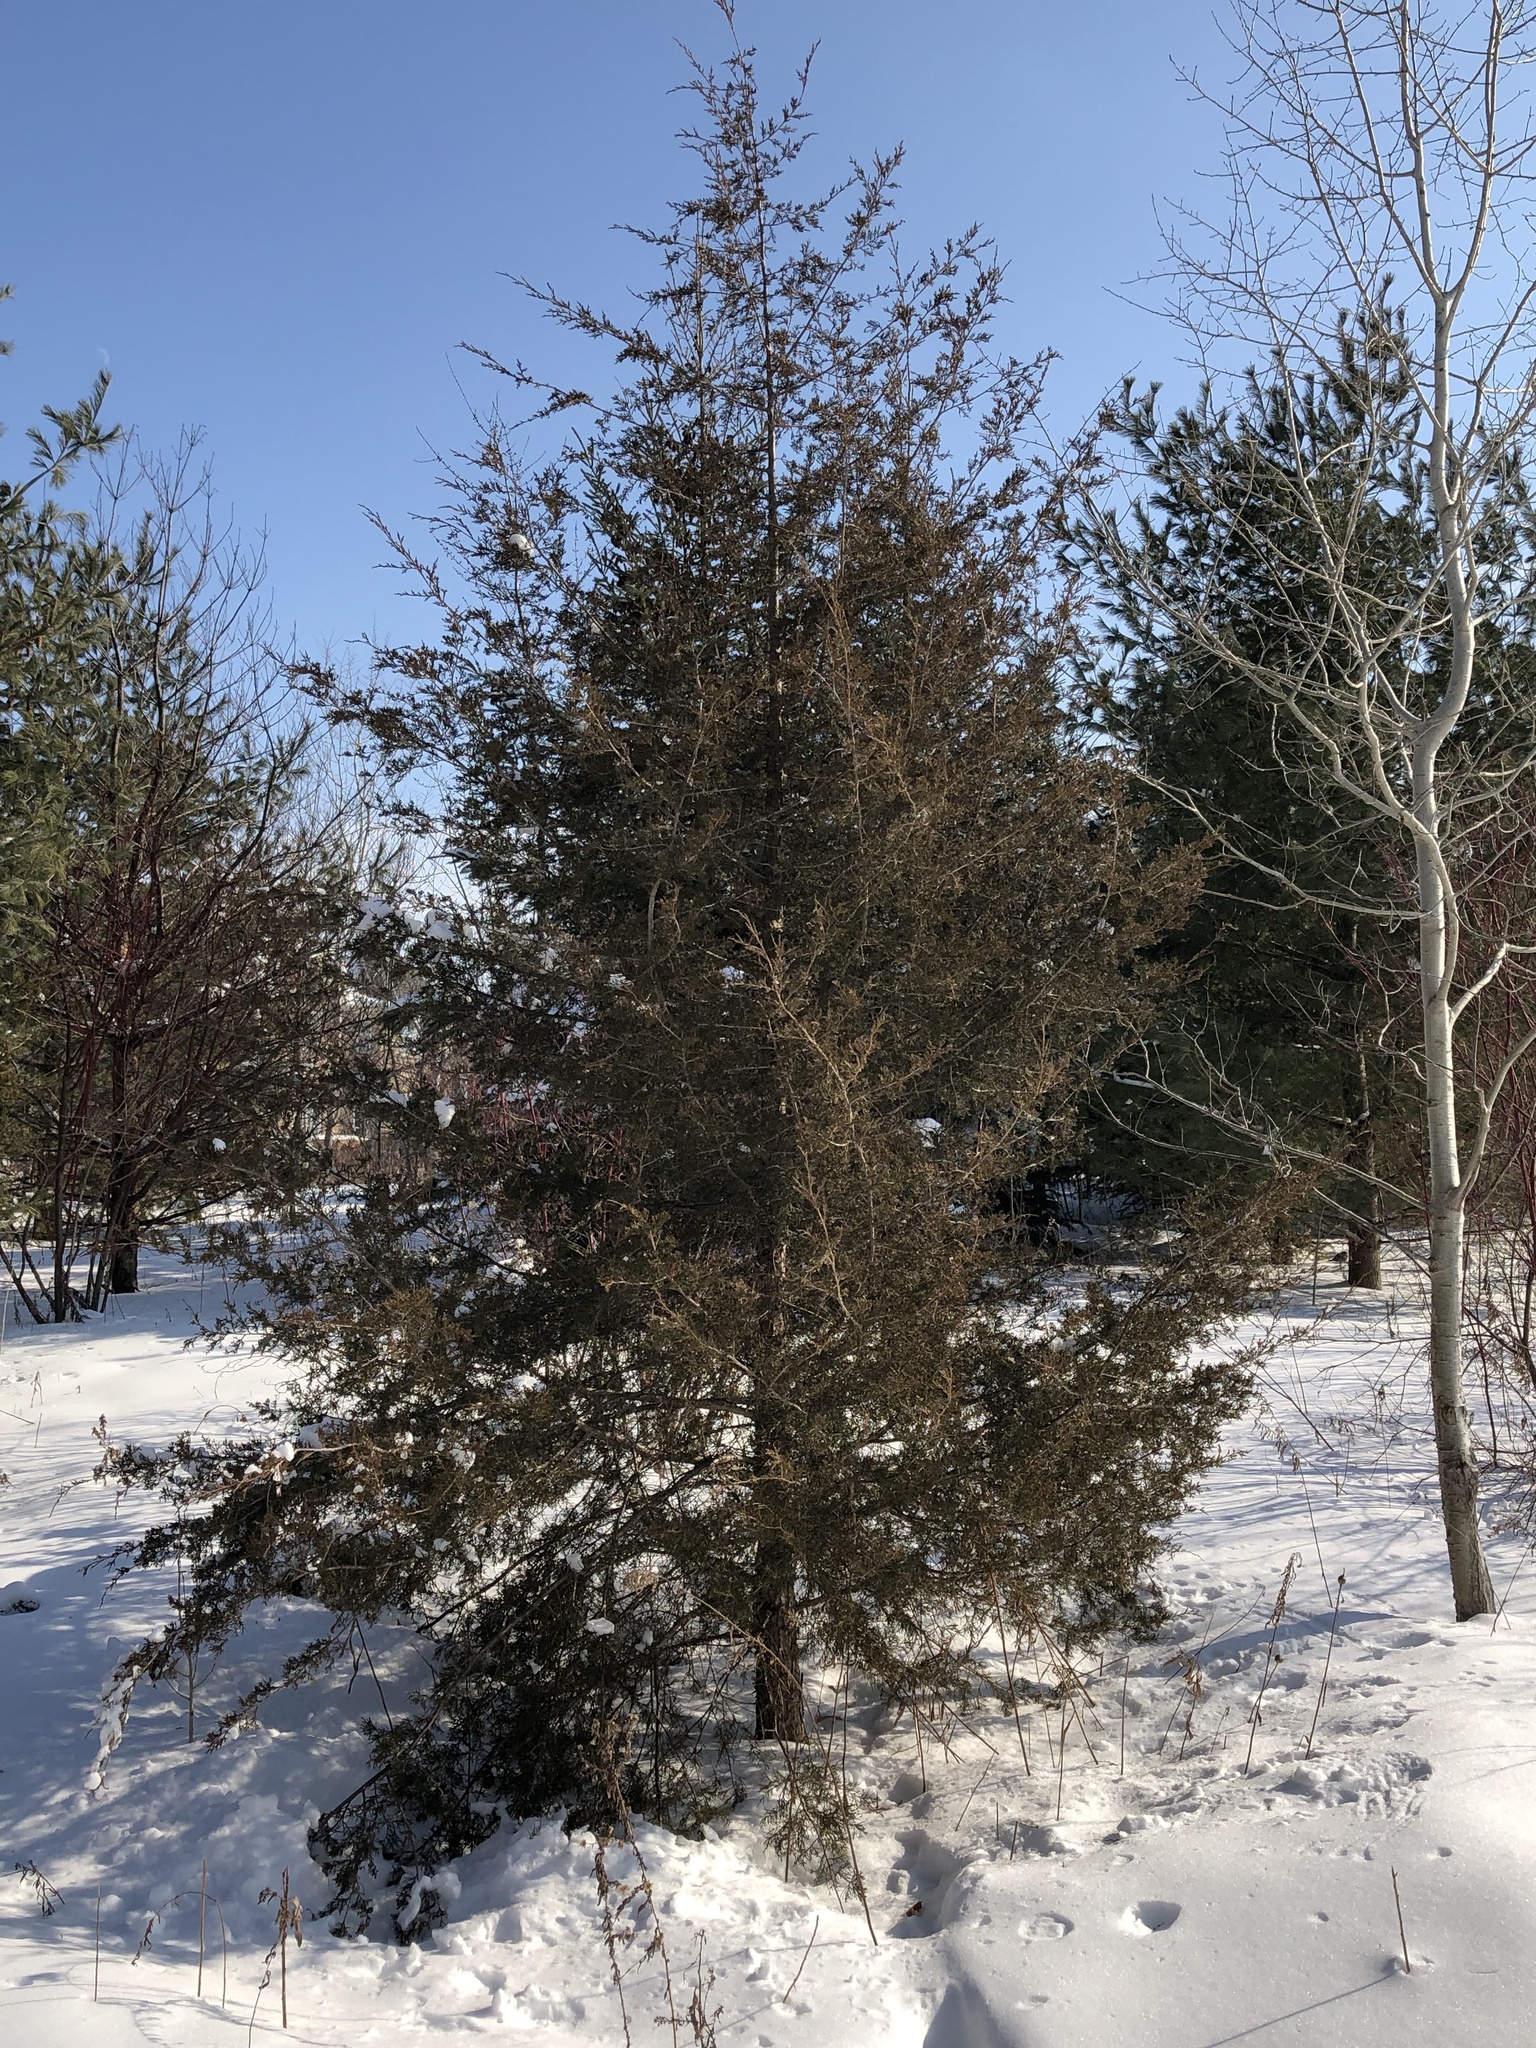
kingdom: Plantae
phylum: Tracheophyta
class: Pinopsida
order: Pinales
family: Cupressaceae
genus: Juniperus
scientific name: Juniperus virginiana
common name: Red juniper
